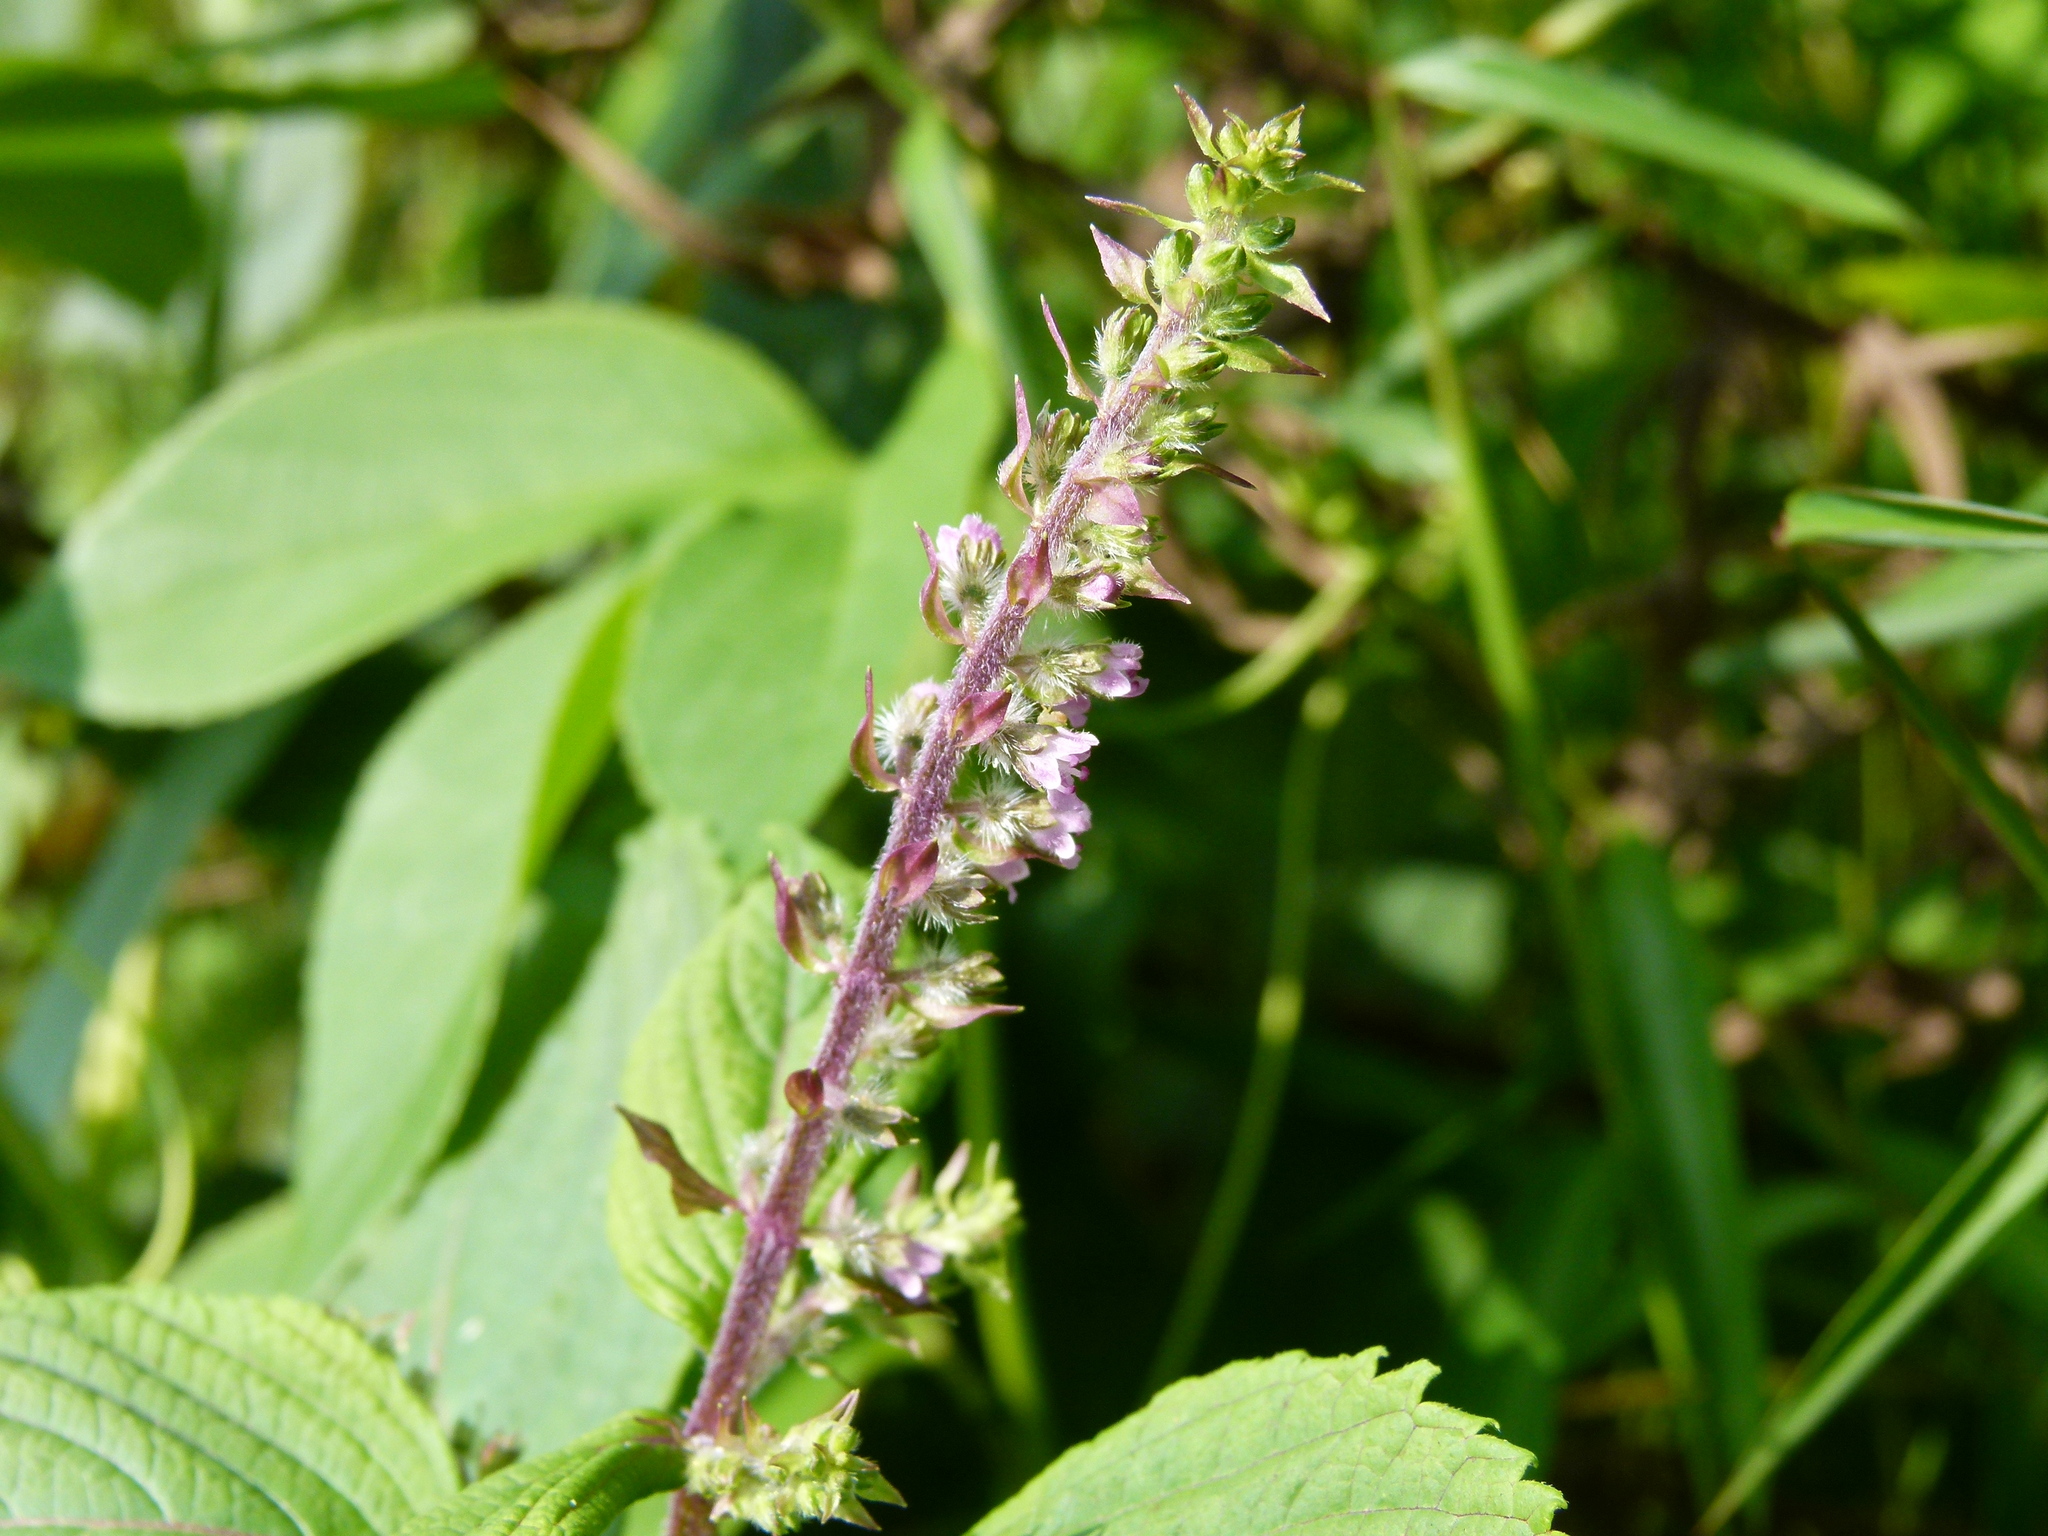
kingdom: Plantae
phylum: Tracheophyta
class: Magnoliopsida
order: Lamiales
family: Lamiaceae
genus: Perilla
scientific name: Perilla frutescens
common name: Perilla
